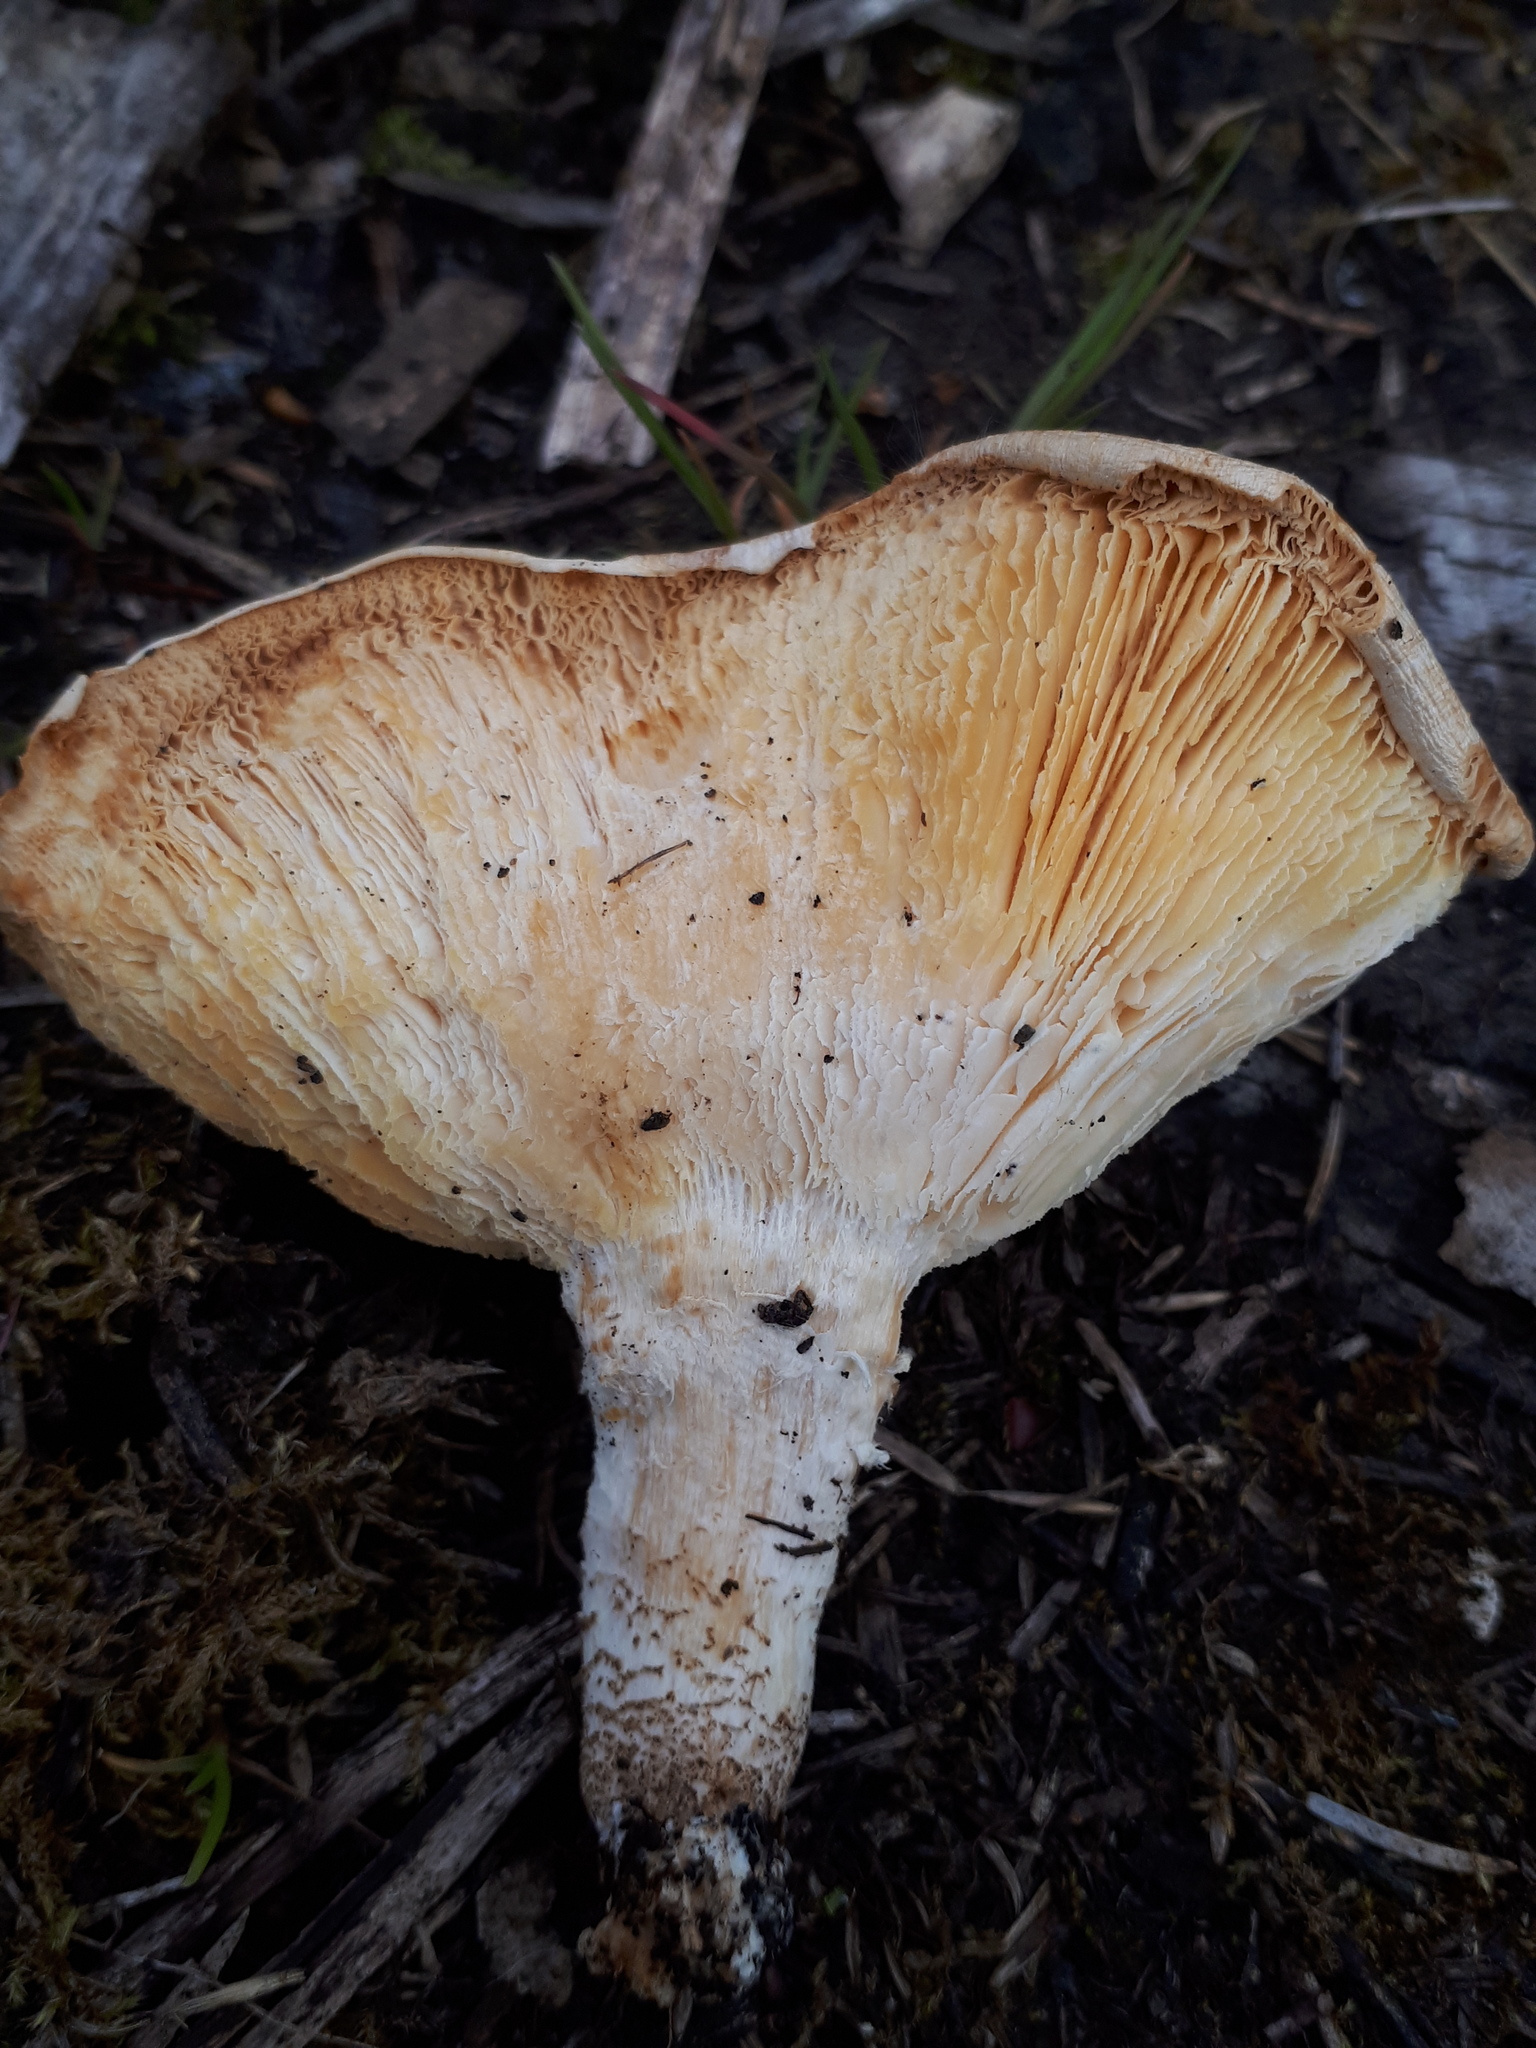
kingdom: Fungi
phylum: Basidiomycota
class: Agaricomycetes
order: Polyporales
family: Polyporaceae
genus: Lentinus
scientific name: Lentinus tigrinus
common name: Tiger sawgill
